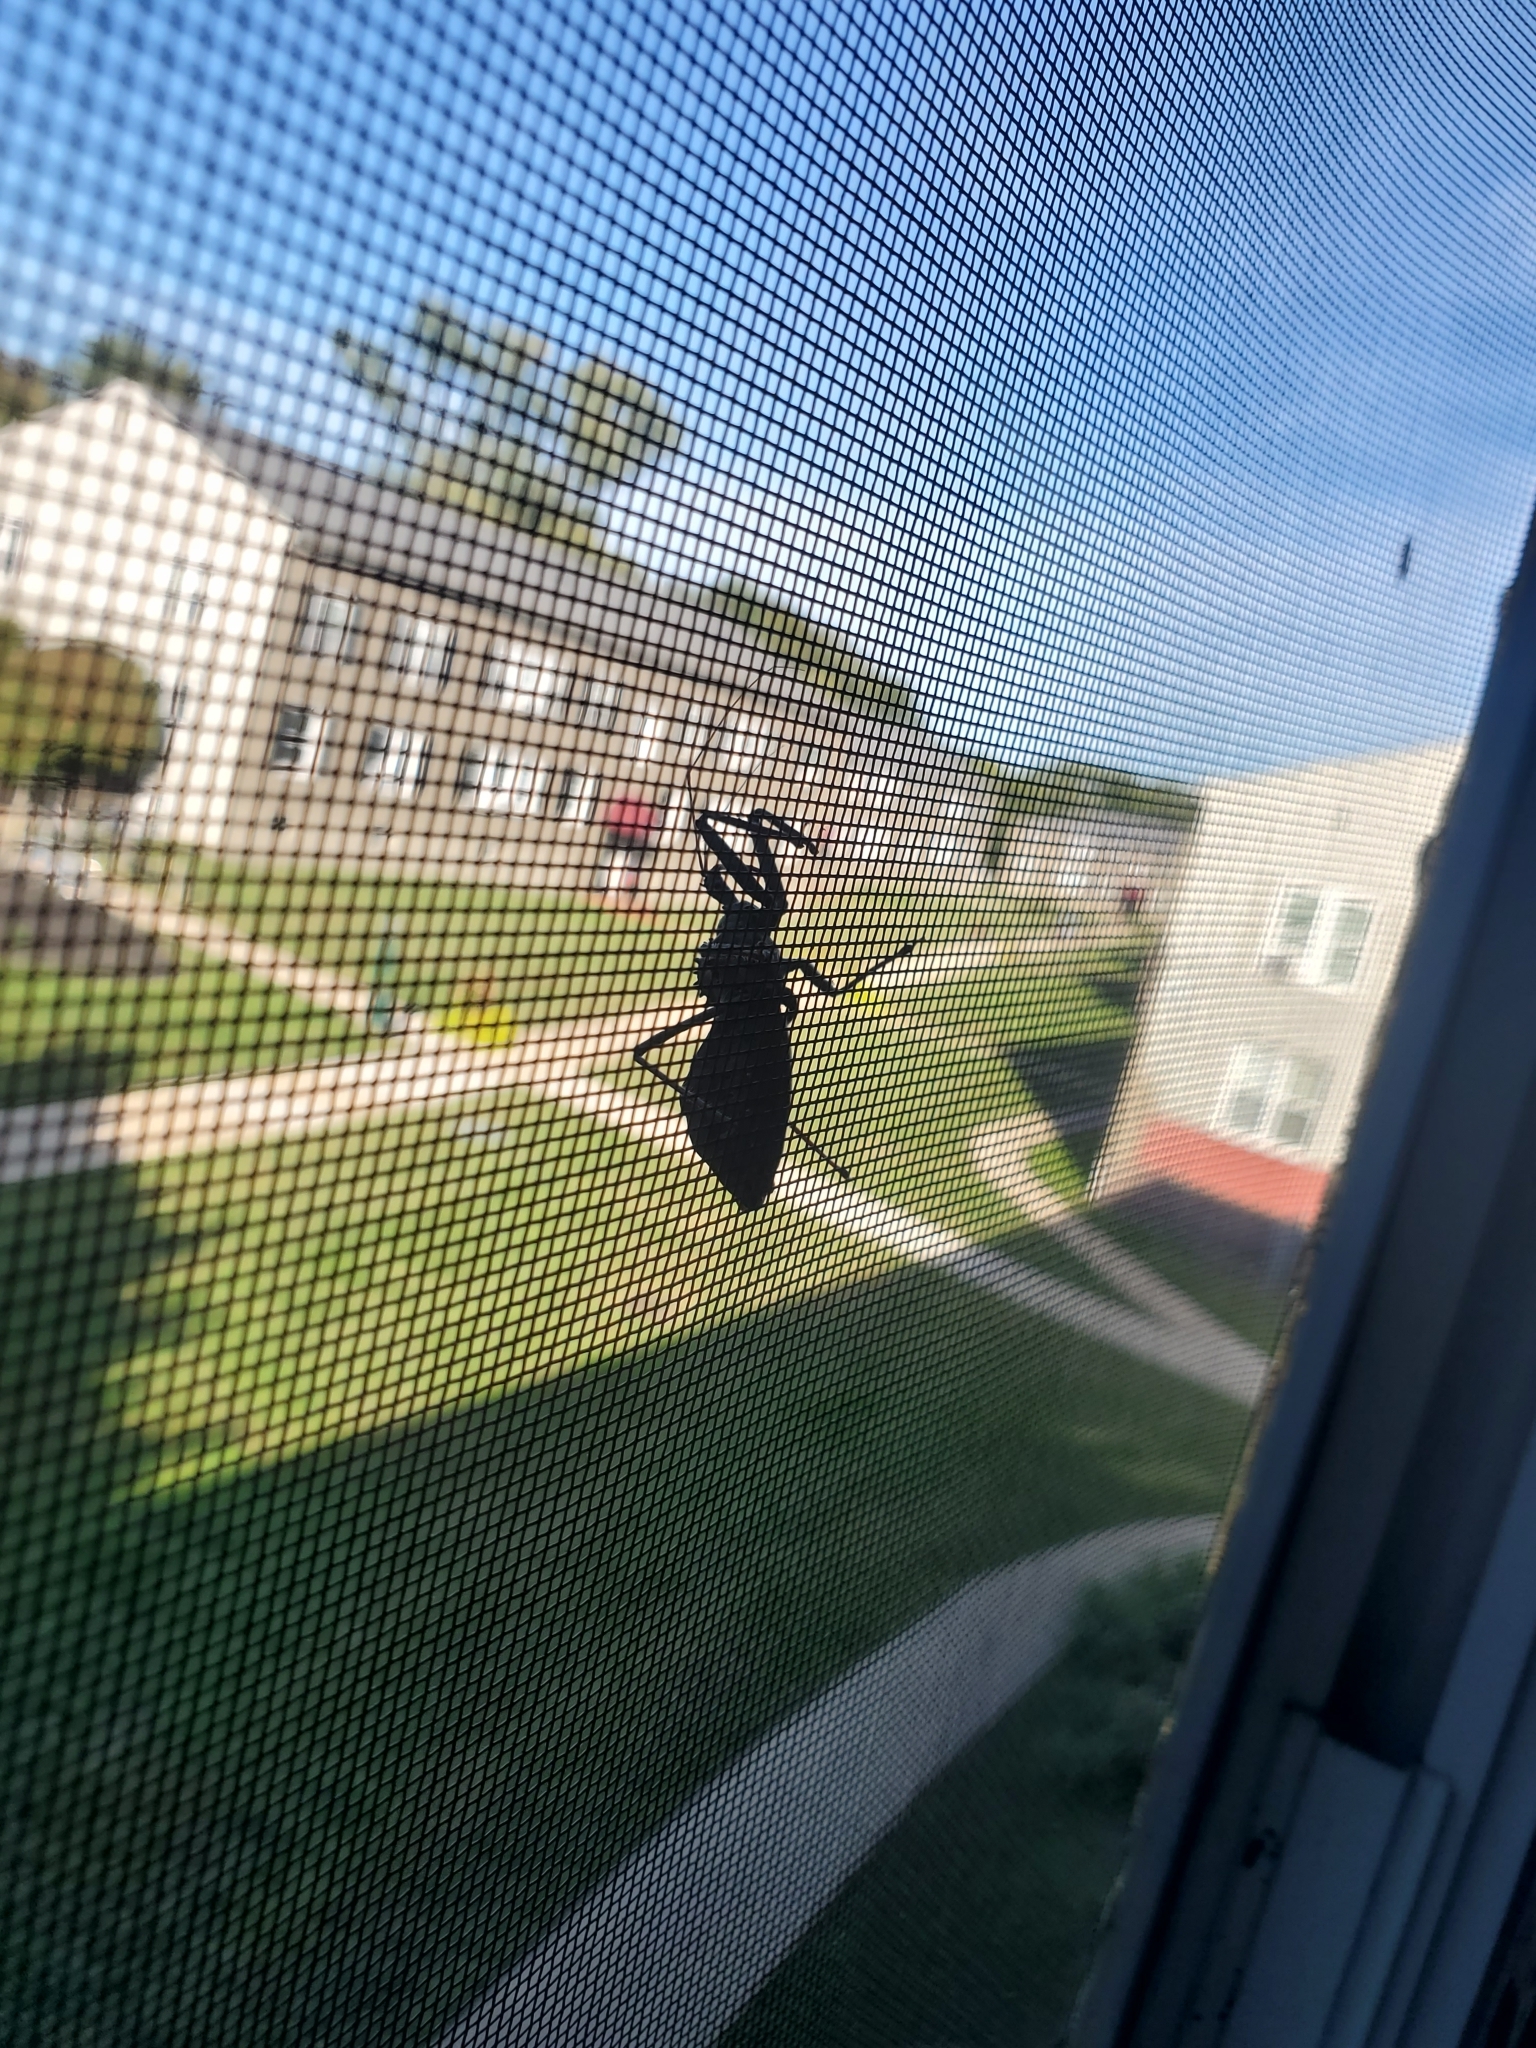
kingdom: Animalia
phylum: Arthropoda
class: Insecta
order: Hemiptera
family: Reduviidae
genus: Arilus
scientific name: Arilus cristatus
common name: North american wheel bug
